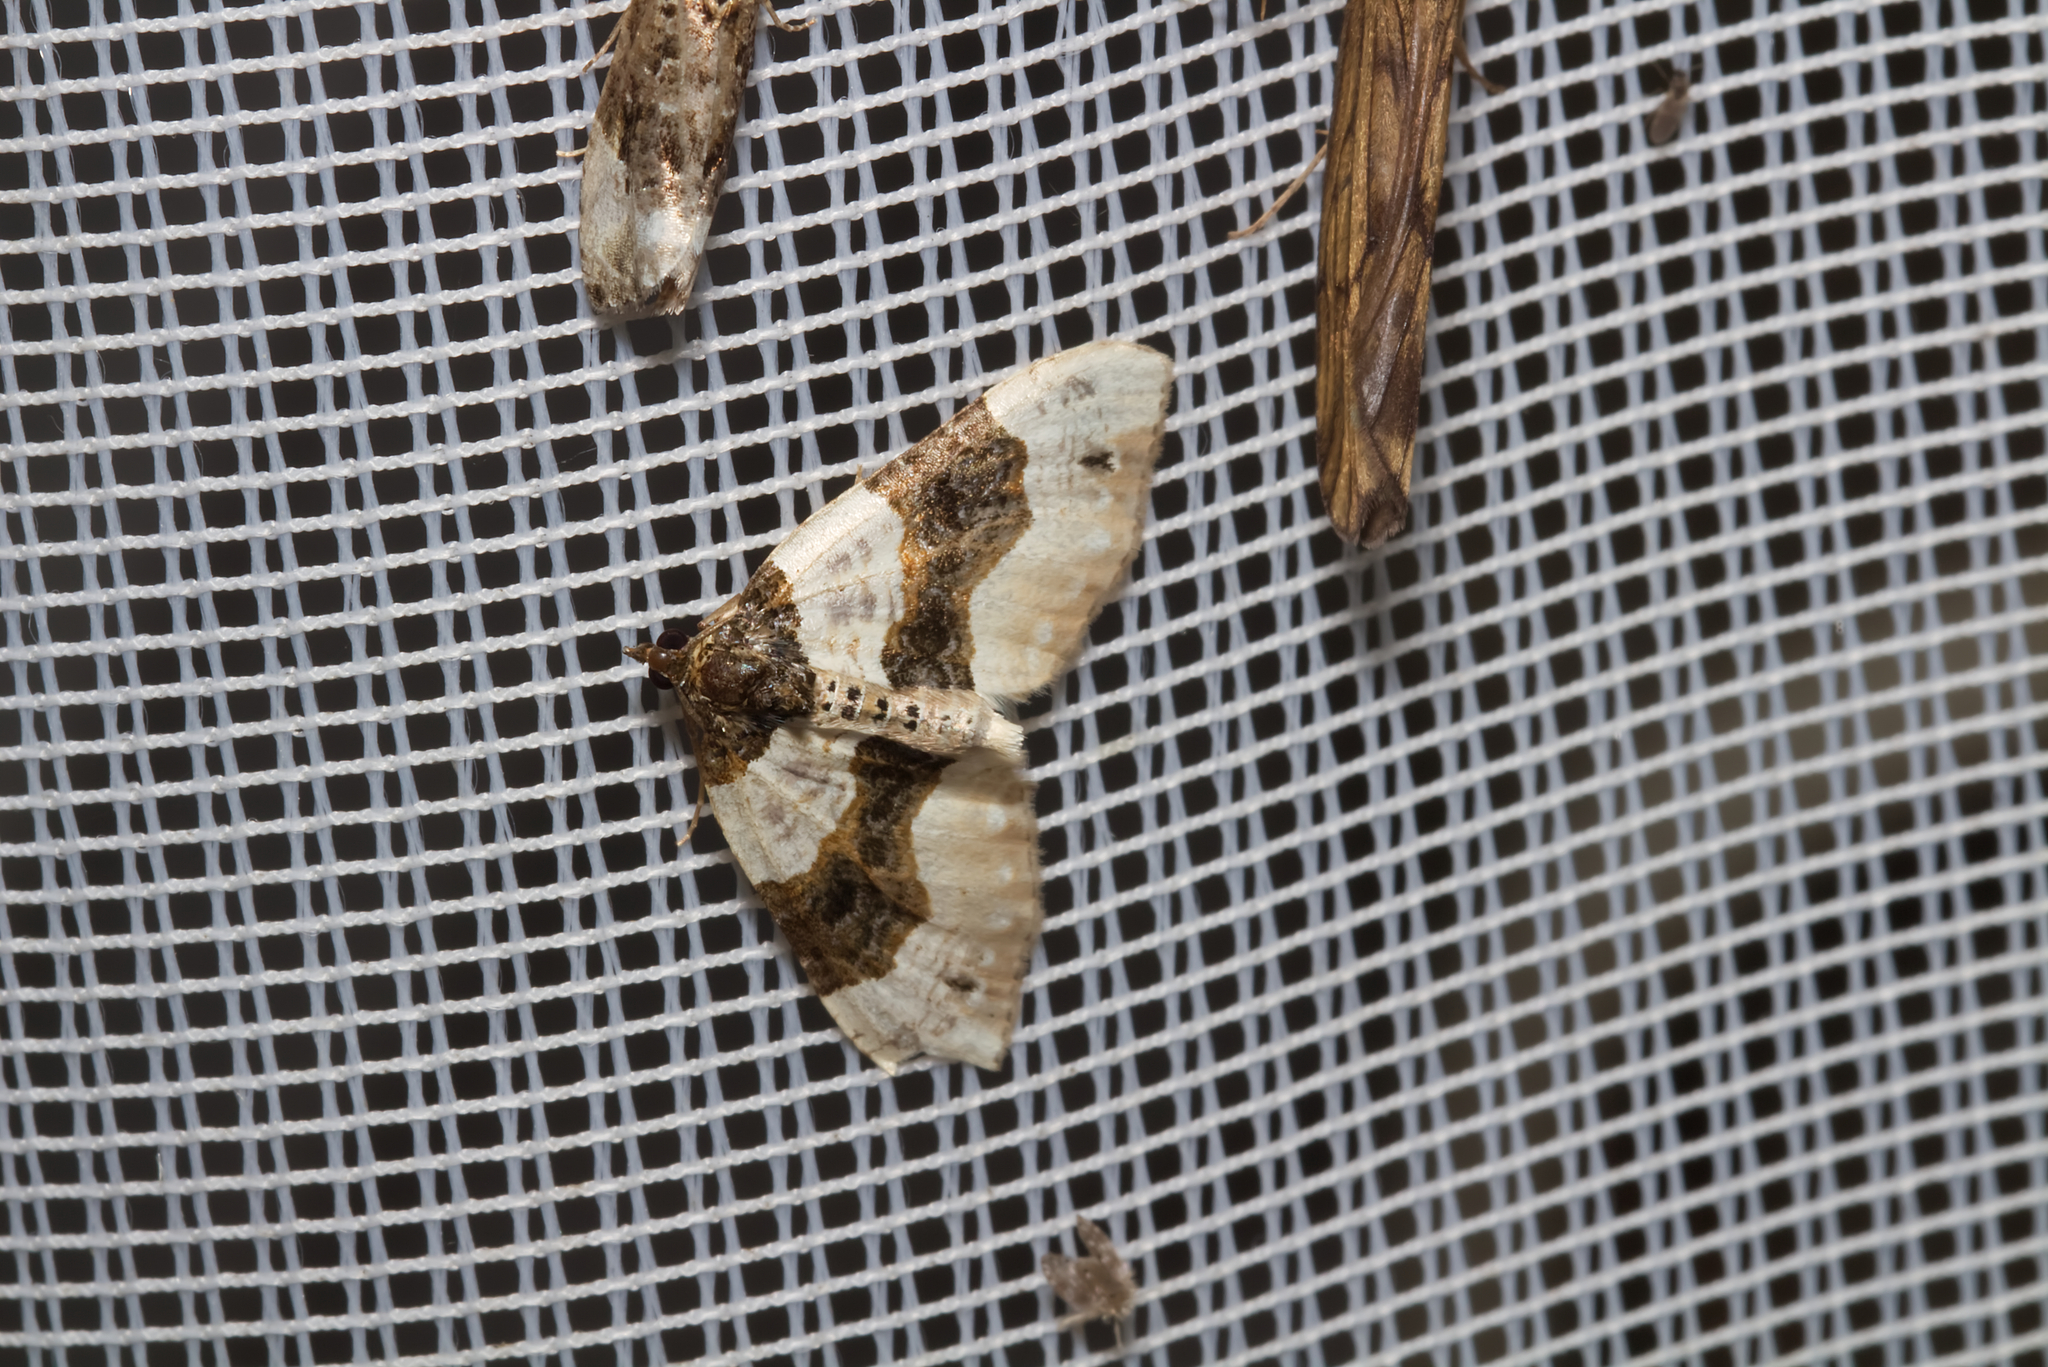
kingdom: Animalia
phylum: Arthropoda
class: Insecta
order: Lepidoptera
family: Geometridae
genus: Cosmorhoe
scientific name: Cosmorhoe ocellata
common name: Purple bar
